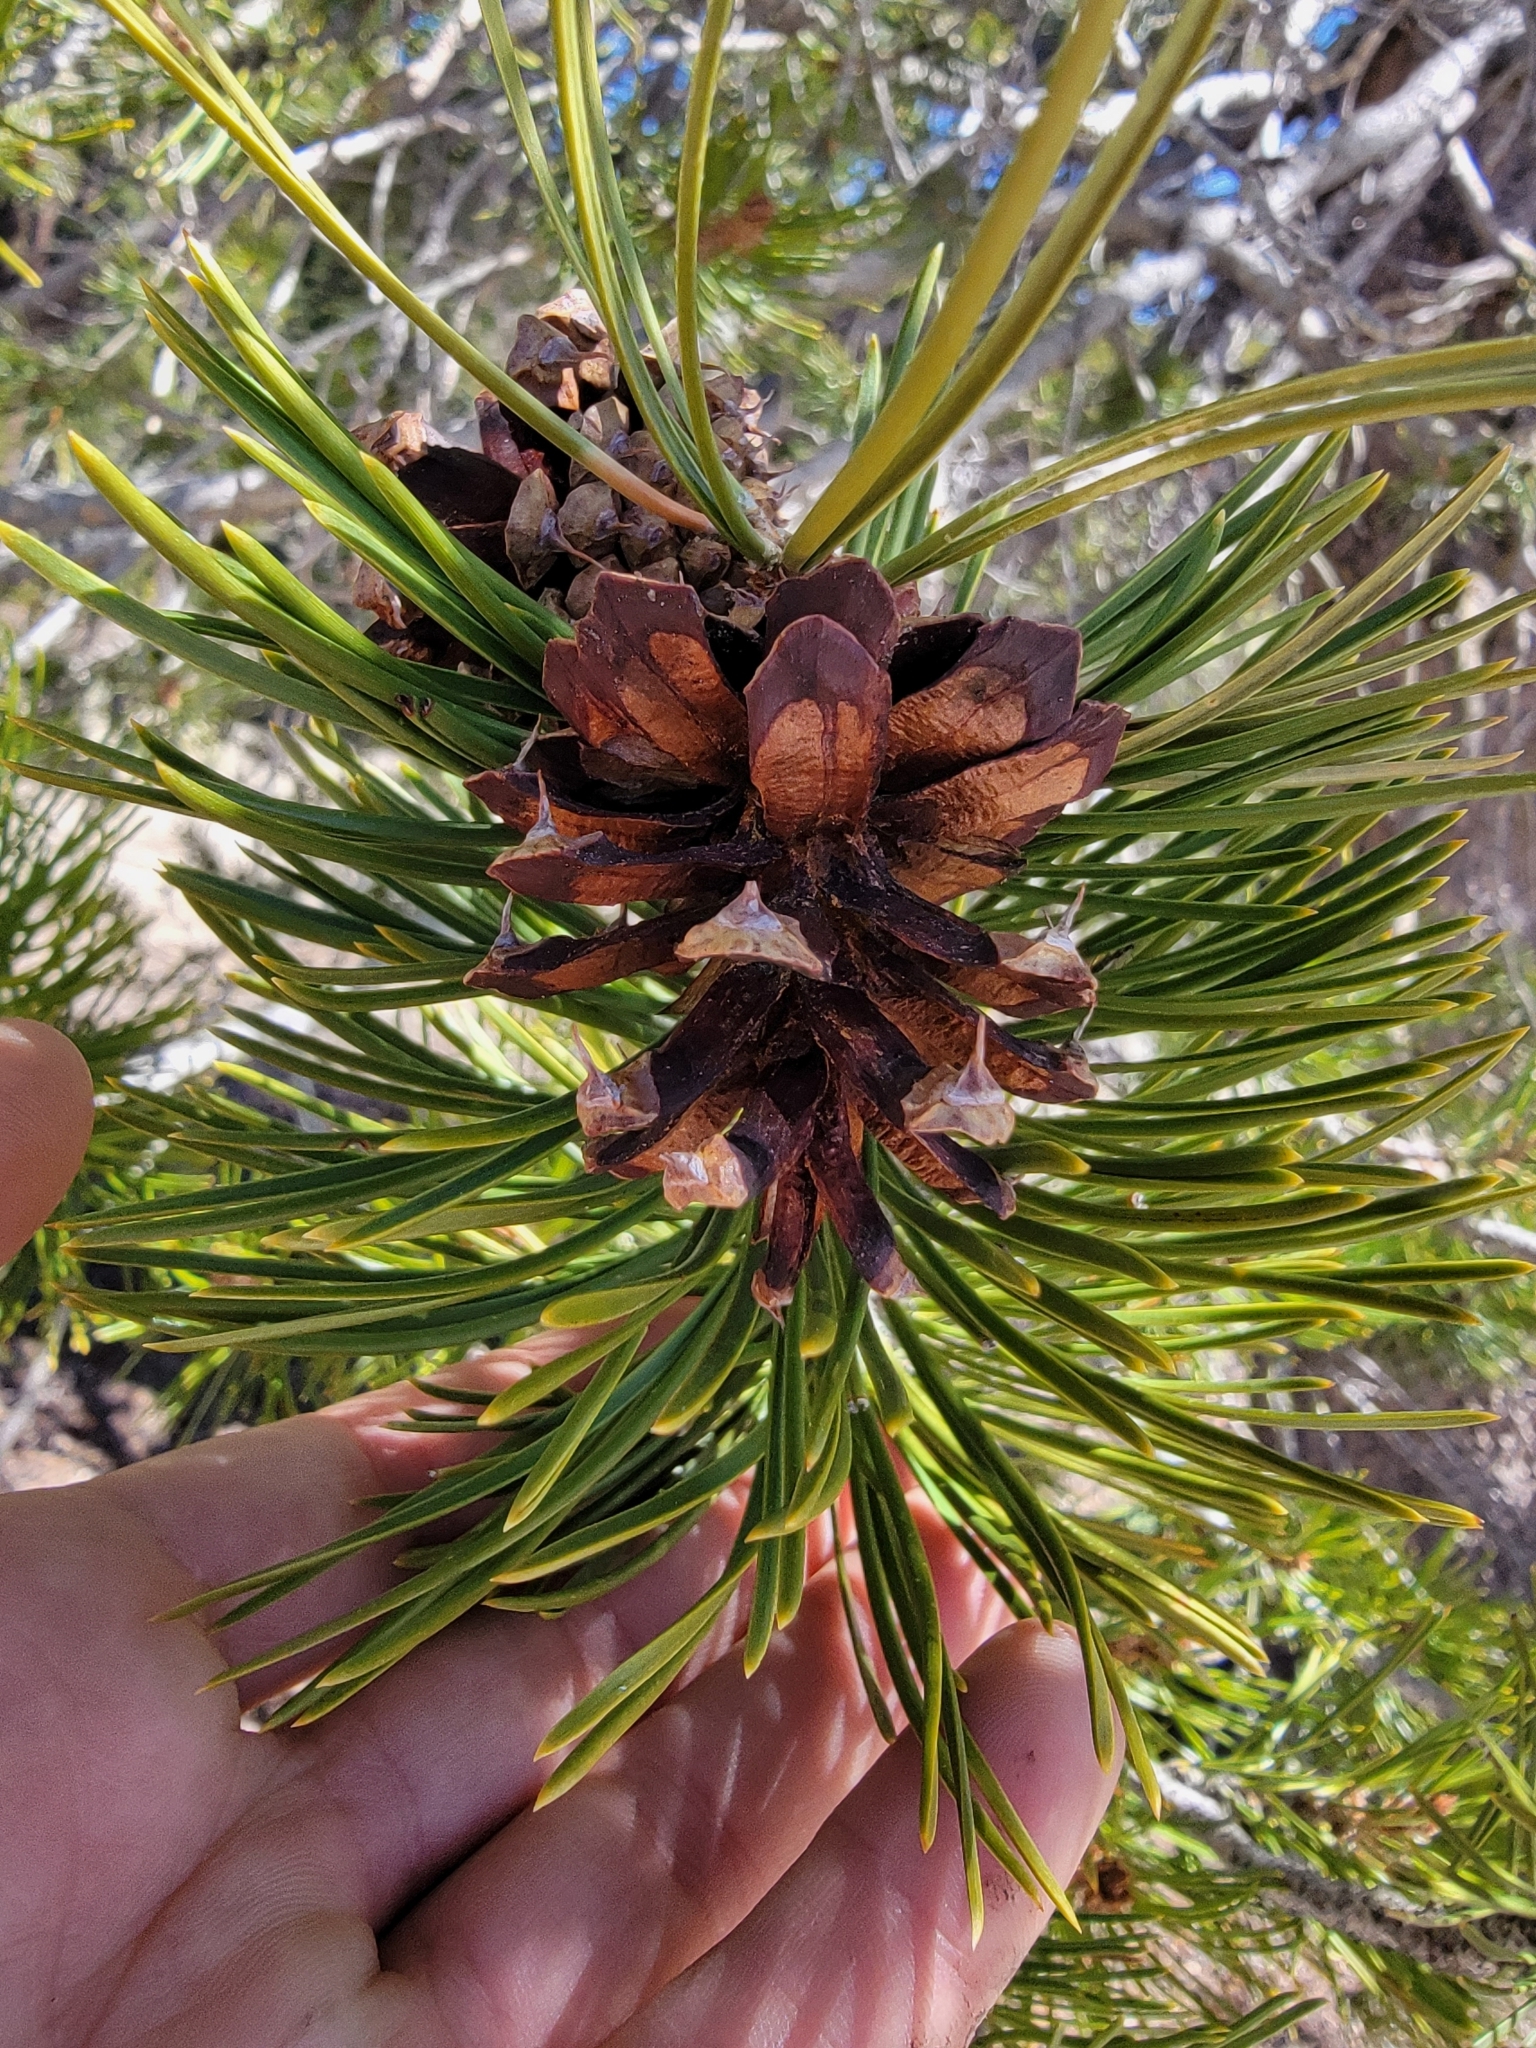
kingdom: Plantae
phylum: Tracheophyta
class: Pinopsida
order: Pinales
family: Pinaceae
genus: Pinus
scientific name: Pinus contorta
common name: Lodgepole pine
